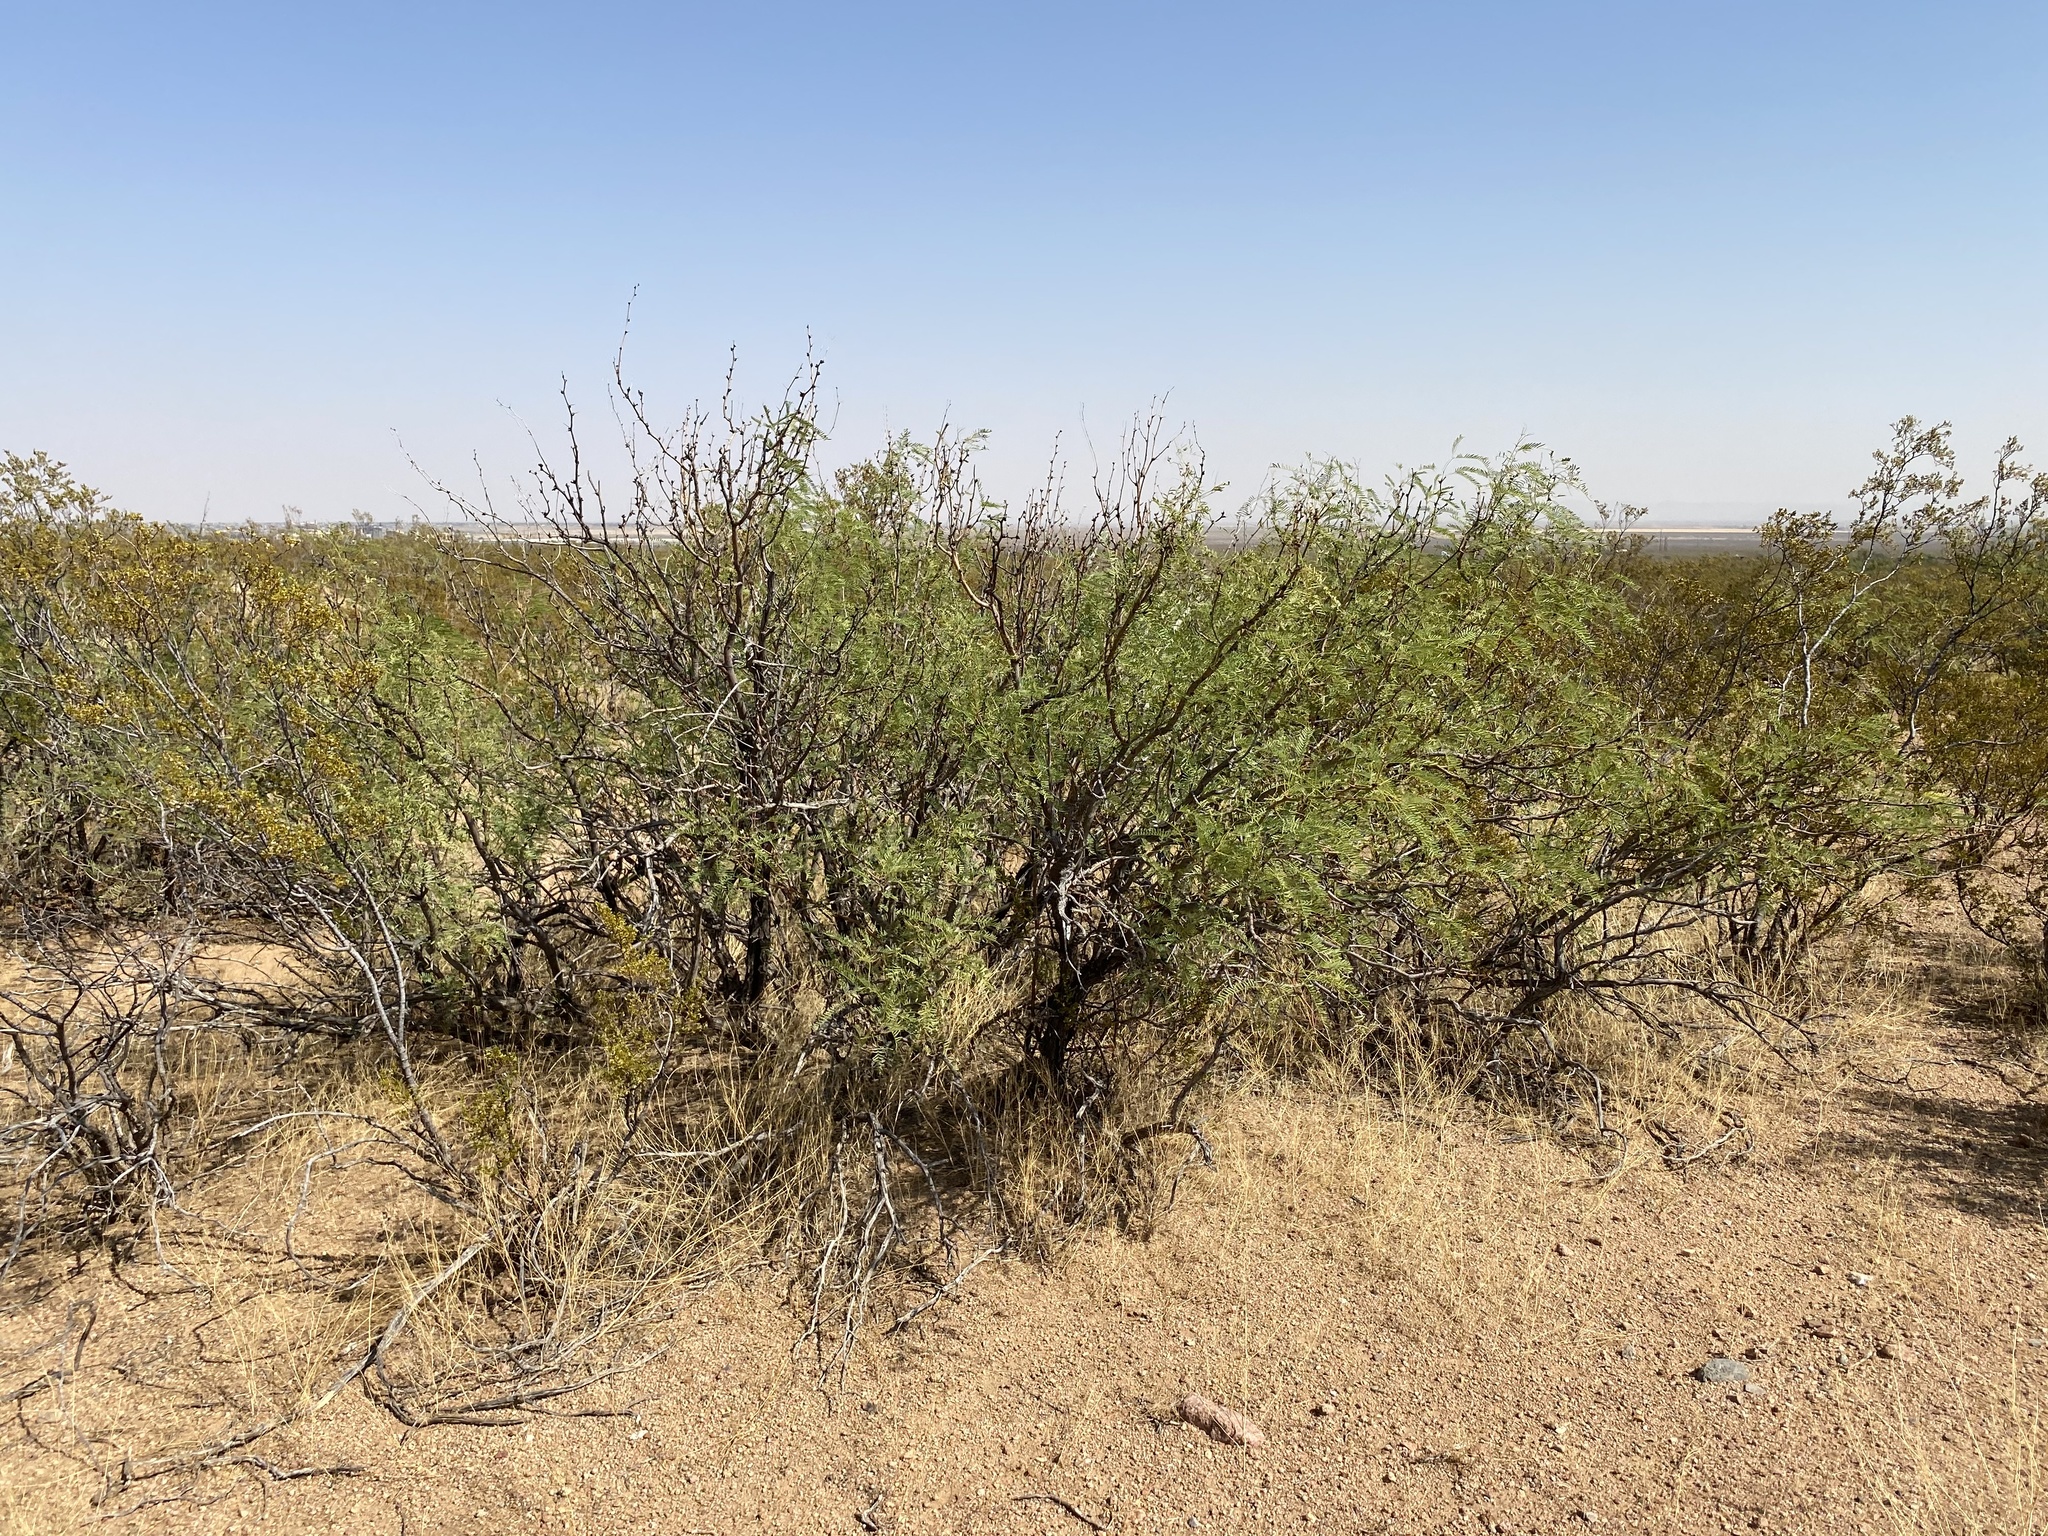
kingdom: Plantae
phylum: Tracheophyta
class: Magnoliopsida
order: Fabales
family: Fabaceae
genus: Prosopis
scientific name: Prosopis glandulosa
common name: Honey mesquite
